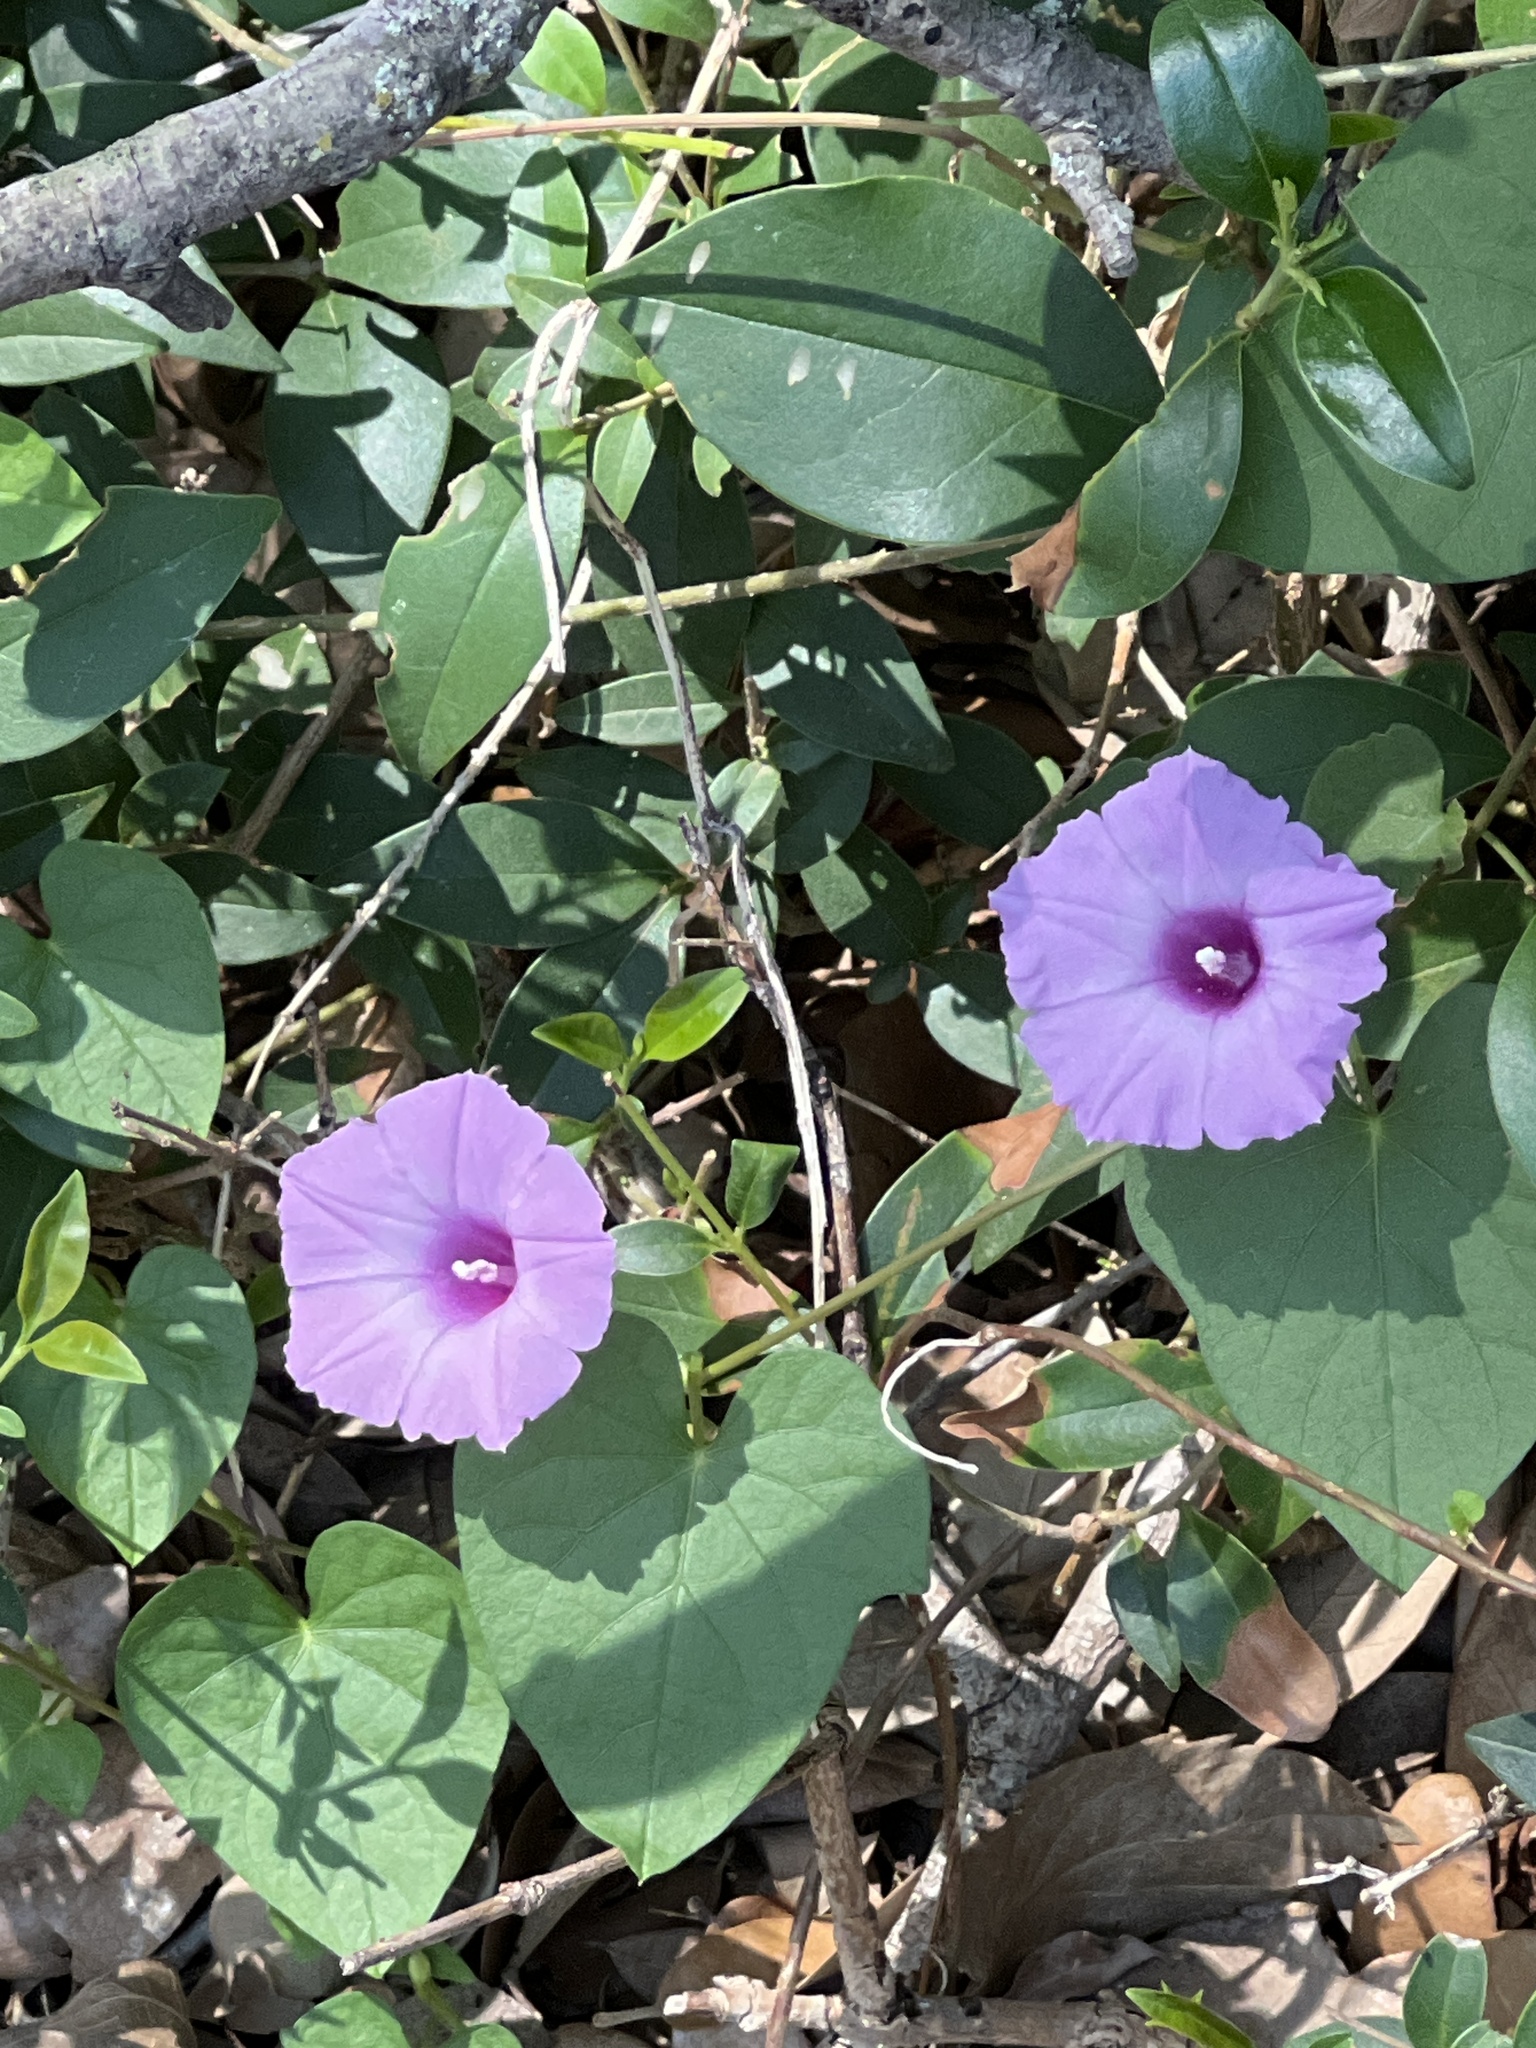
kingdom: Plantae
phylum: Tracheophyta
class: Magnoliopsida
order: Solanales
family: Convolvulaceae
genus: Ipomoea
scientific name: Ipomoea cordatotriloba
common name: Cotton morning glory
